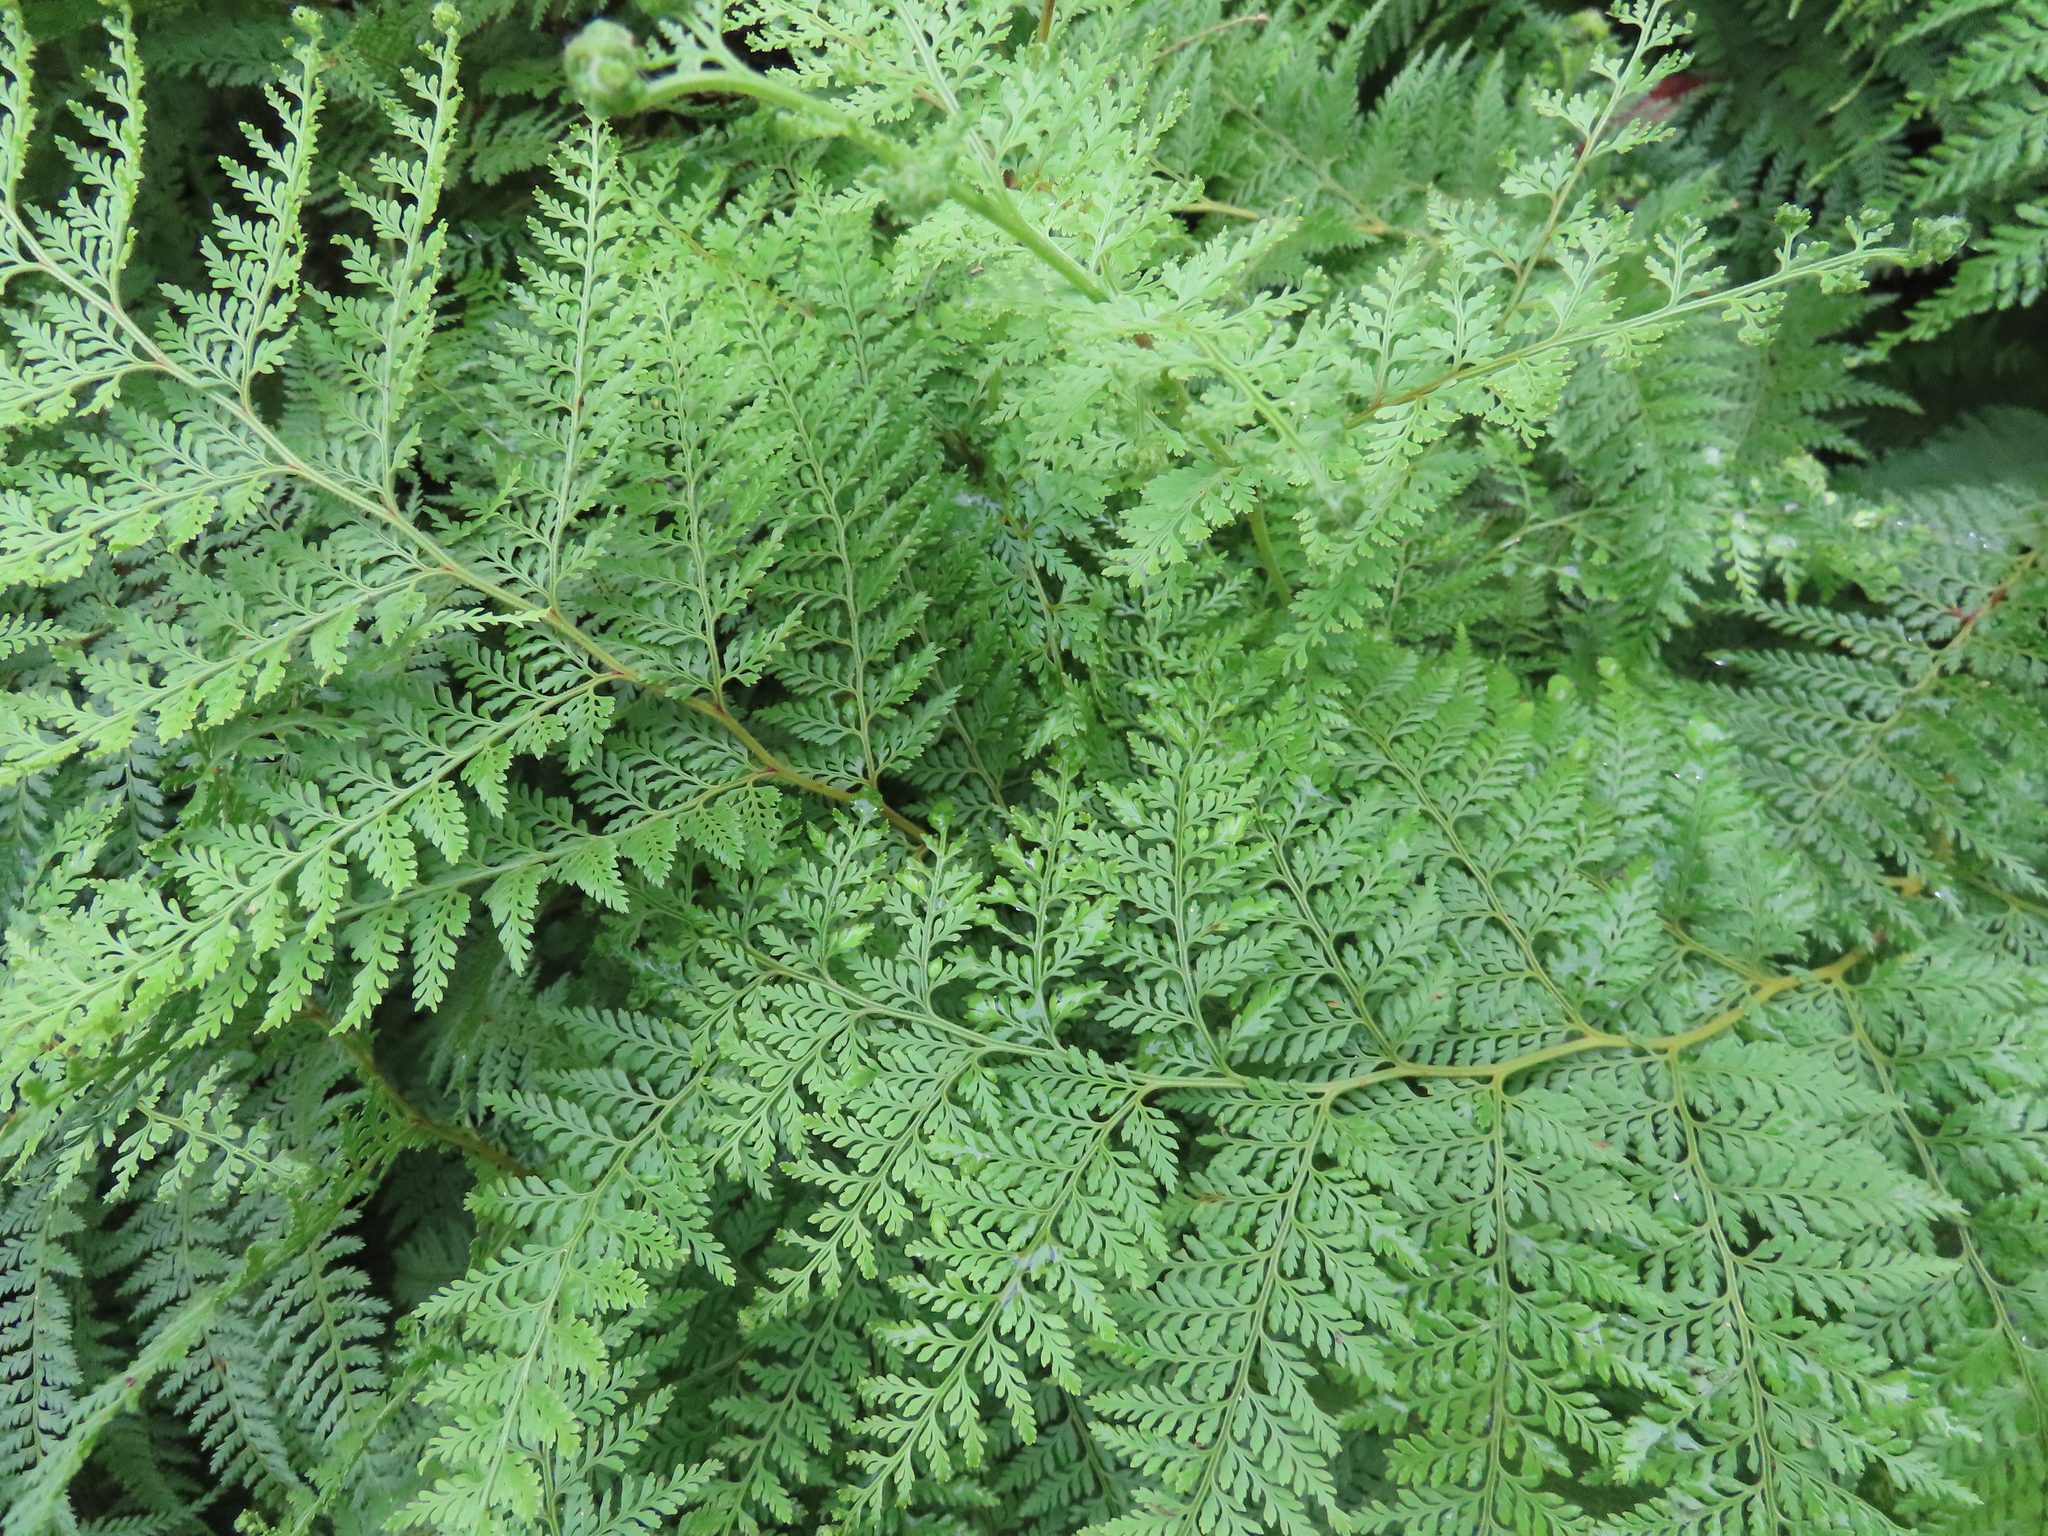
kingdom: Plantae
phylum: Tracheophyta
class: Polypodiopsida
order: Polypodiales
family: Dennstaedtiaceae
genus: Paesia
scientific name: Paesia scaberula
